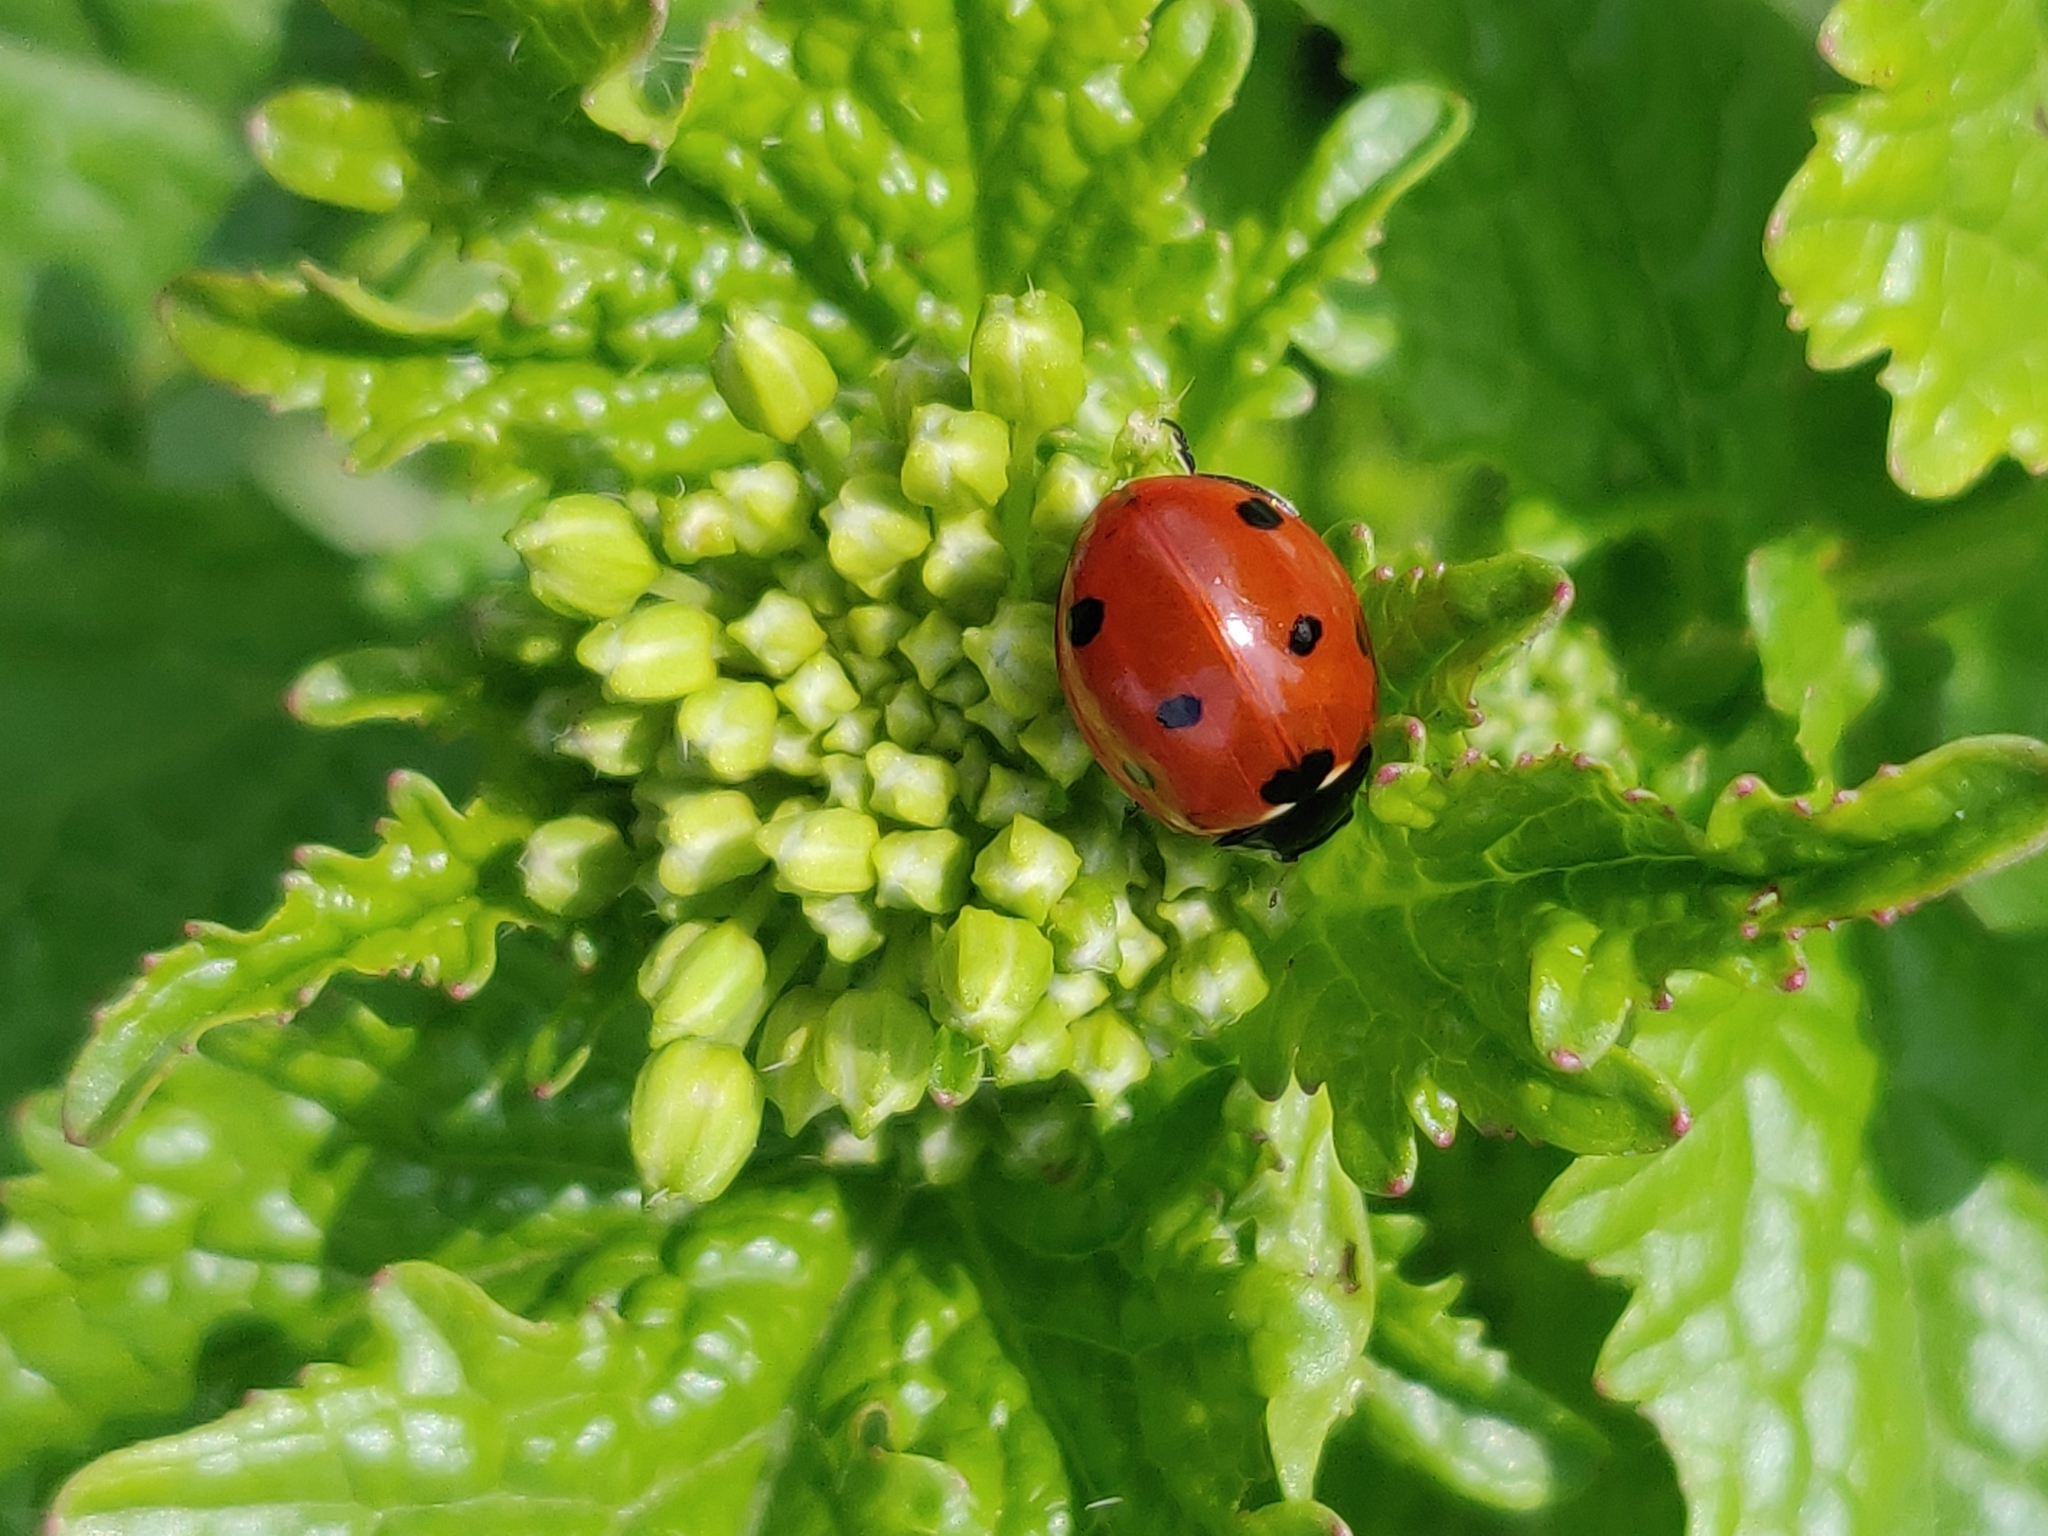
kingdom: Animalia
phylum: Arthropoda
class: Insecta
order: Coleoptera
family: Coccinellidae
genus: Coccinella
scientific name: Coccinella septempunctata
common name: Sevenspotted lady beetle
